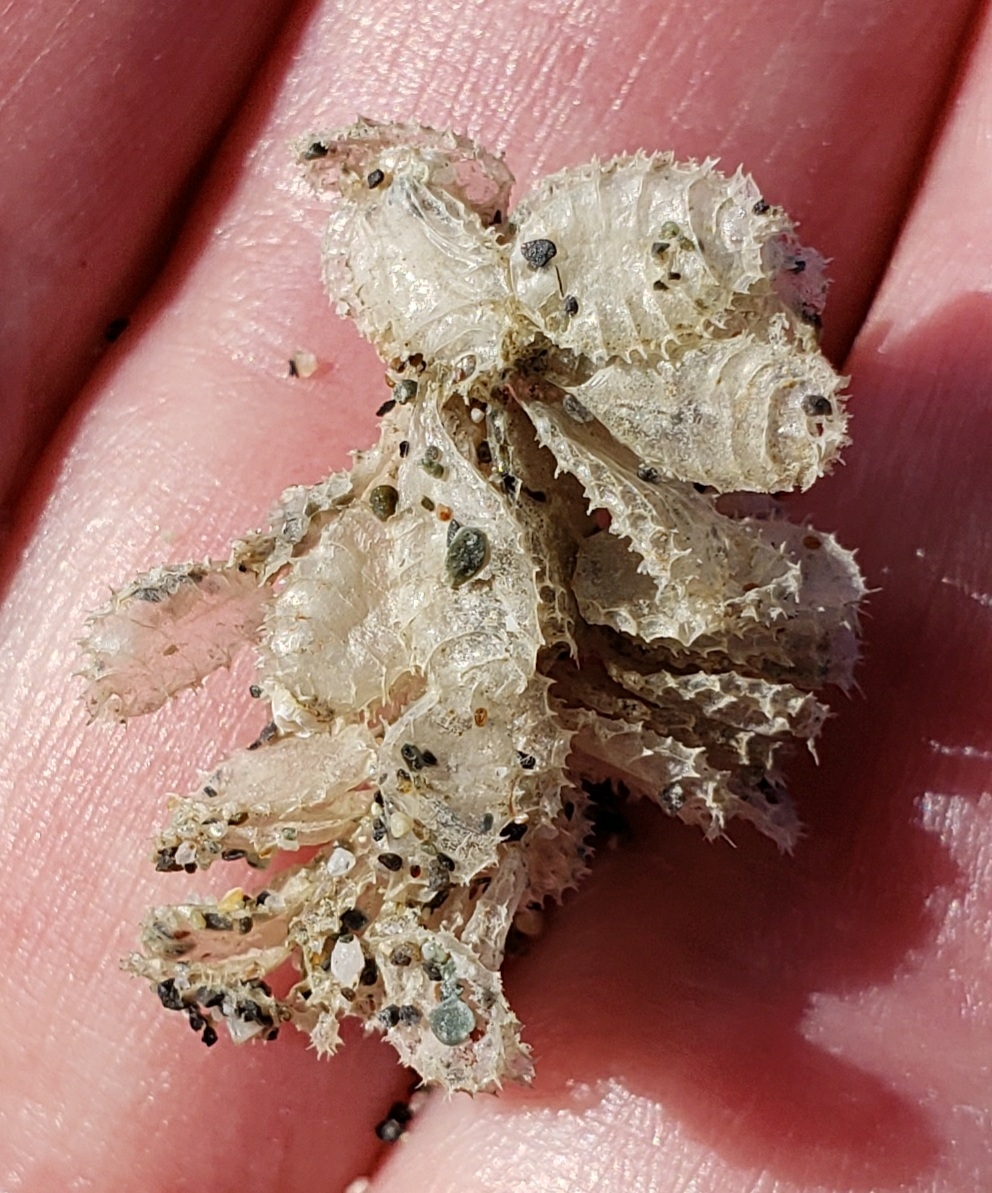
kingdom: Animalia
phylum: Mollusca
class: Gastropoda
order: Neogastropoda
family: Nassariidae
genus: Caesia
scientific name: Caesia fossata
